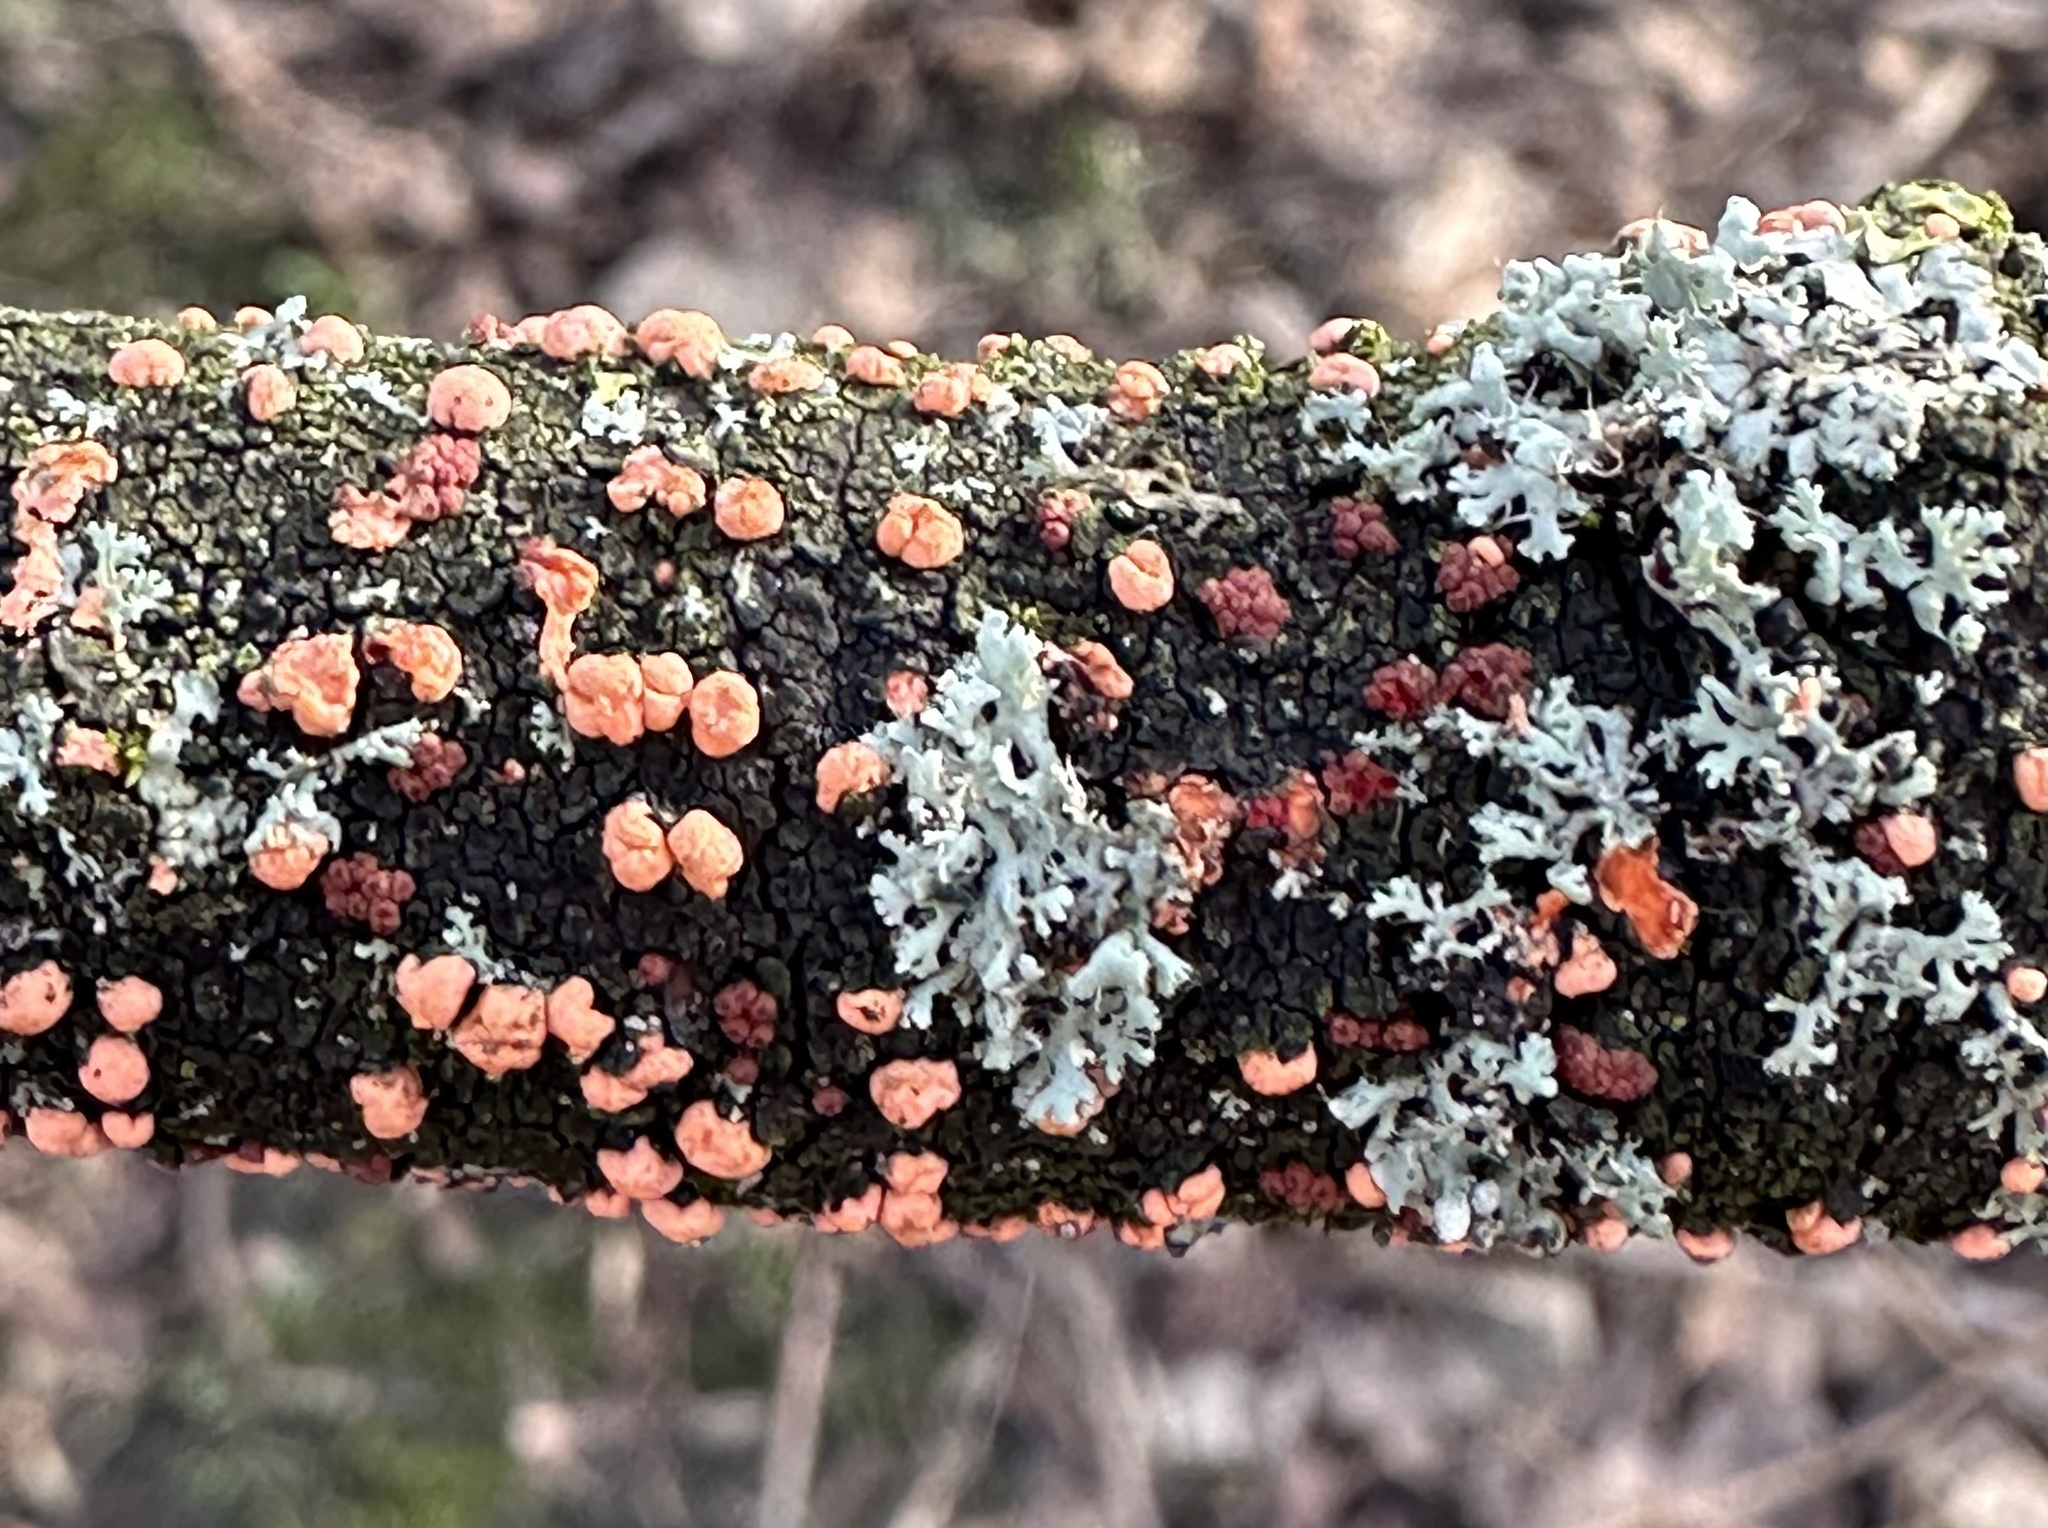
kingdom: Fungi
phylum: Ascomycota
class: Sordariomycetes
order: Hypocreales
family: Nectriaceae
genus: Nectria
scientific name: Nectria cinnabarina
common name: Coral spot
